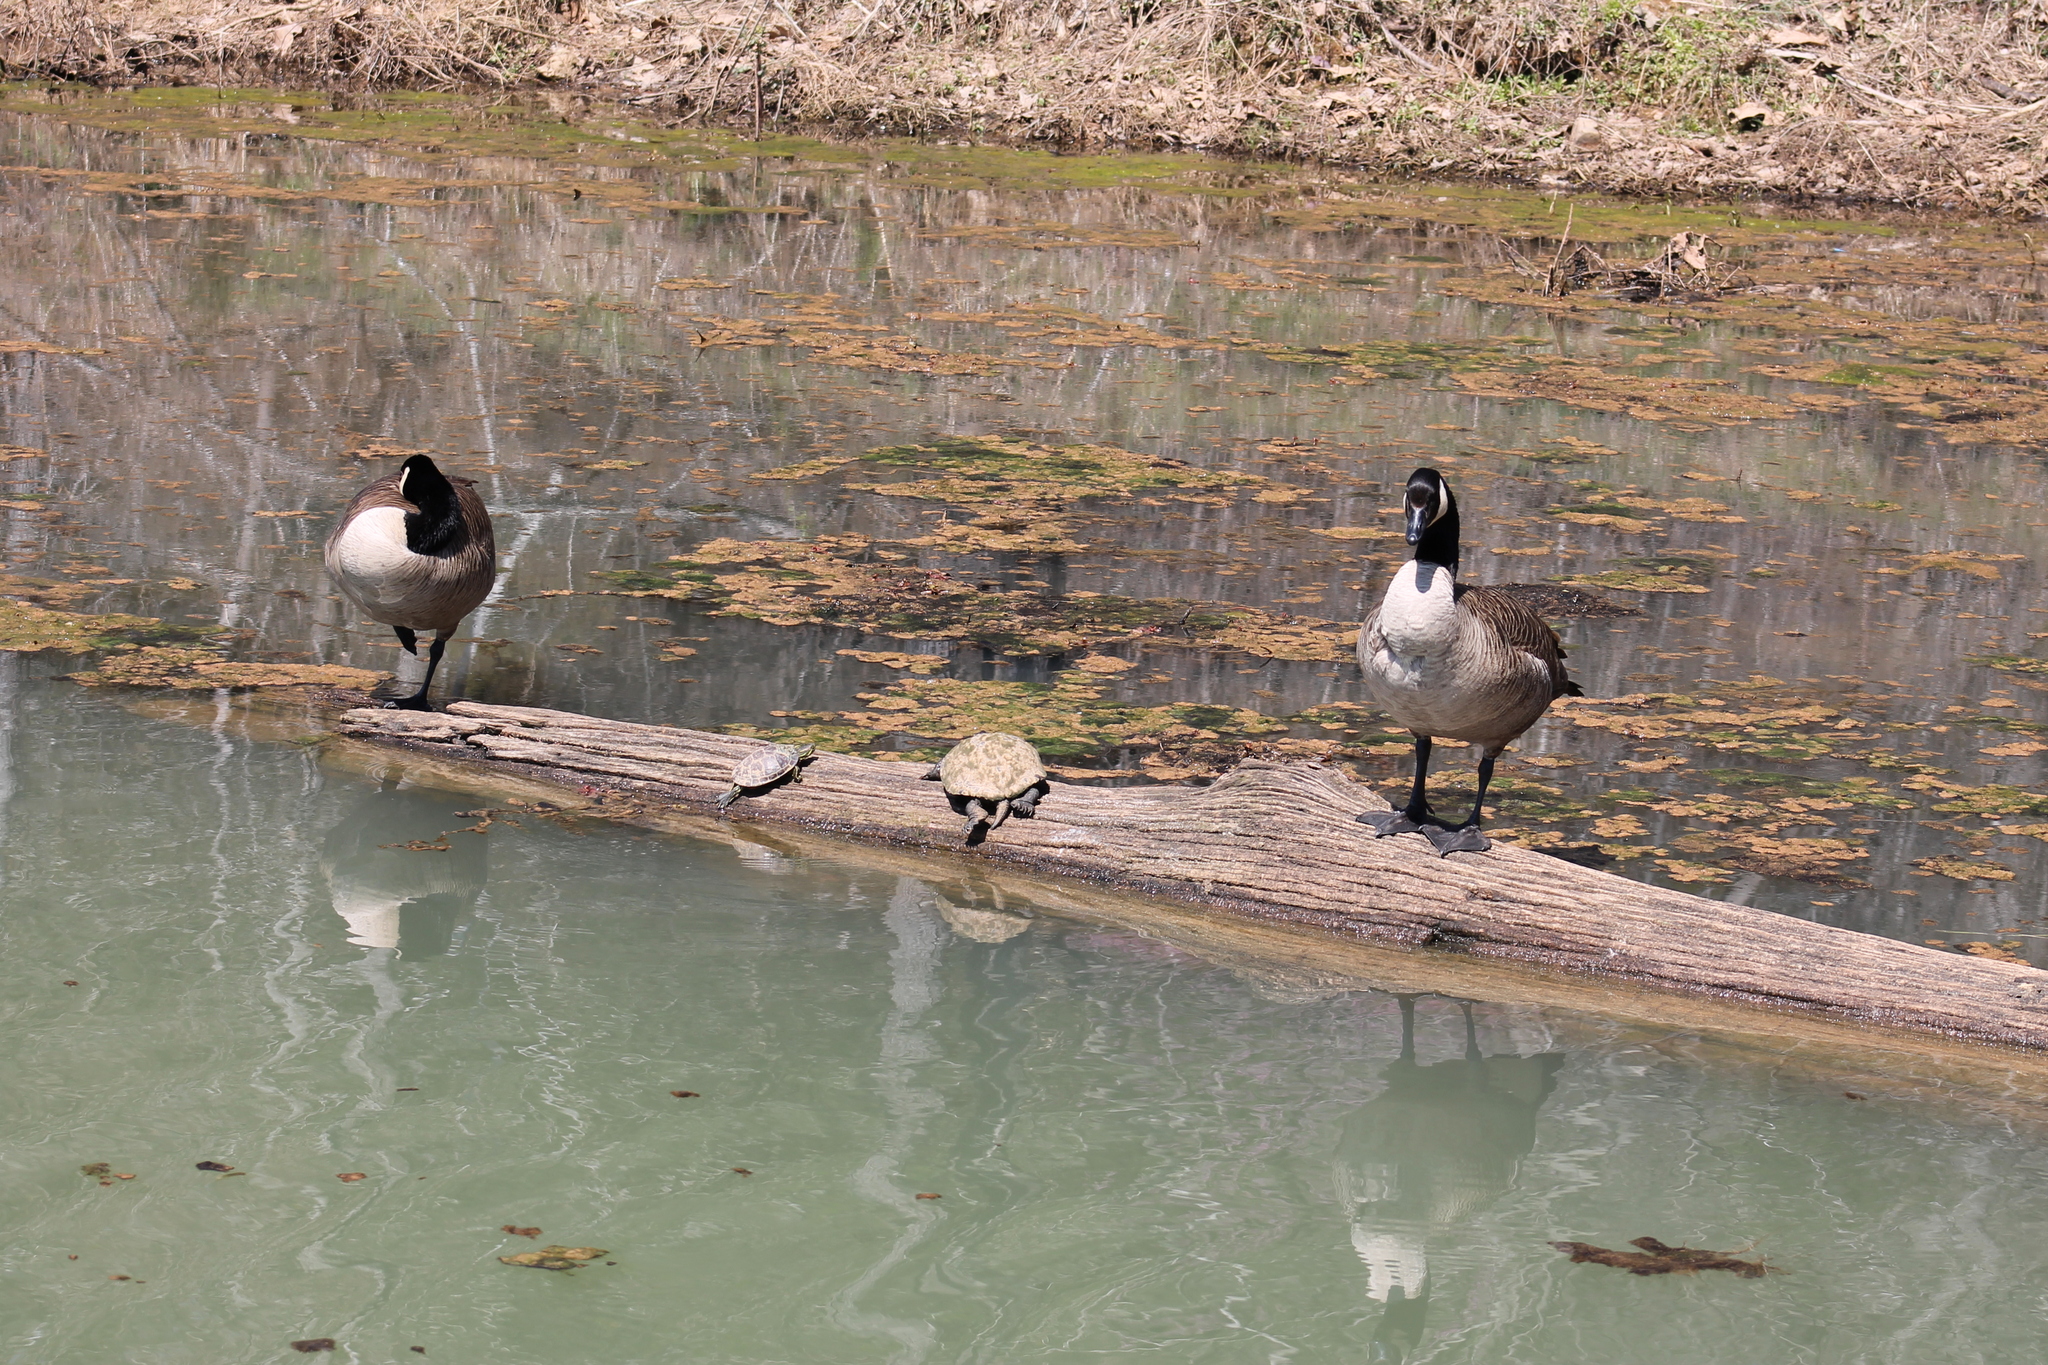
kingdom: Animalia
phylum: Chordata
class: Aves
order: Anseriformes
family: Anatidae
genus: Branta
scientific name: Branta canadensis
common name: Canada goose
